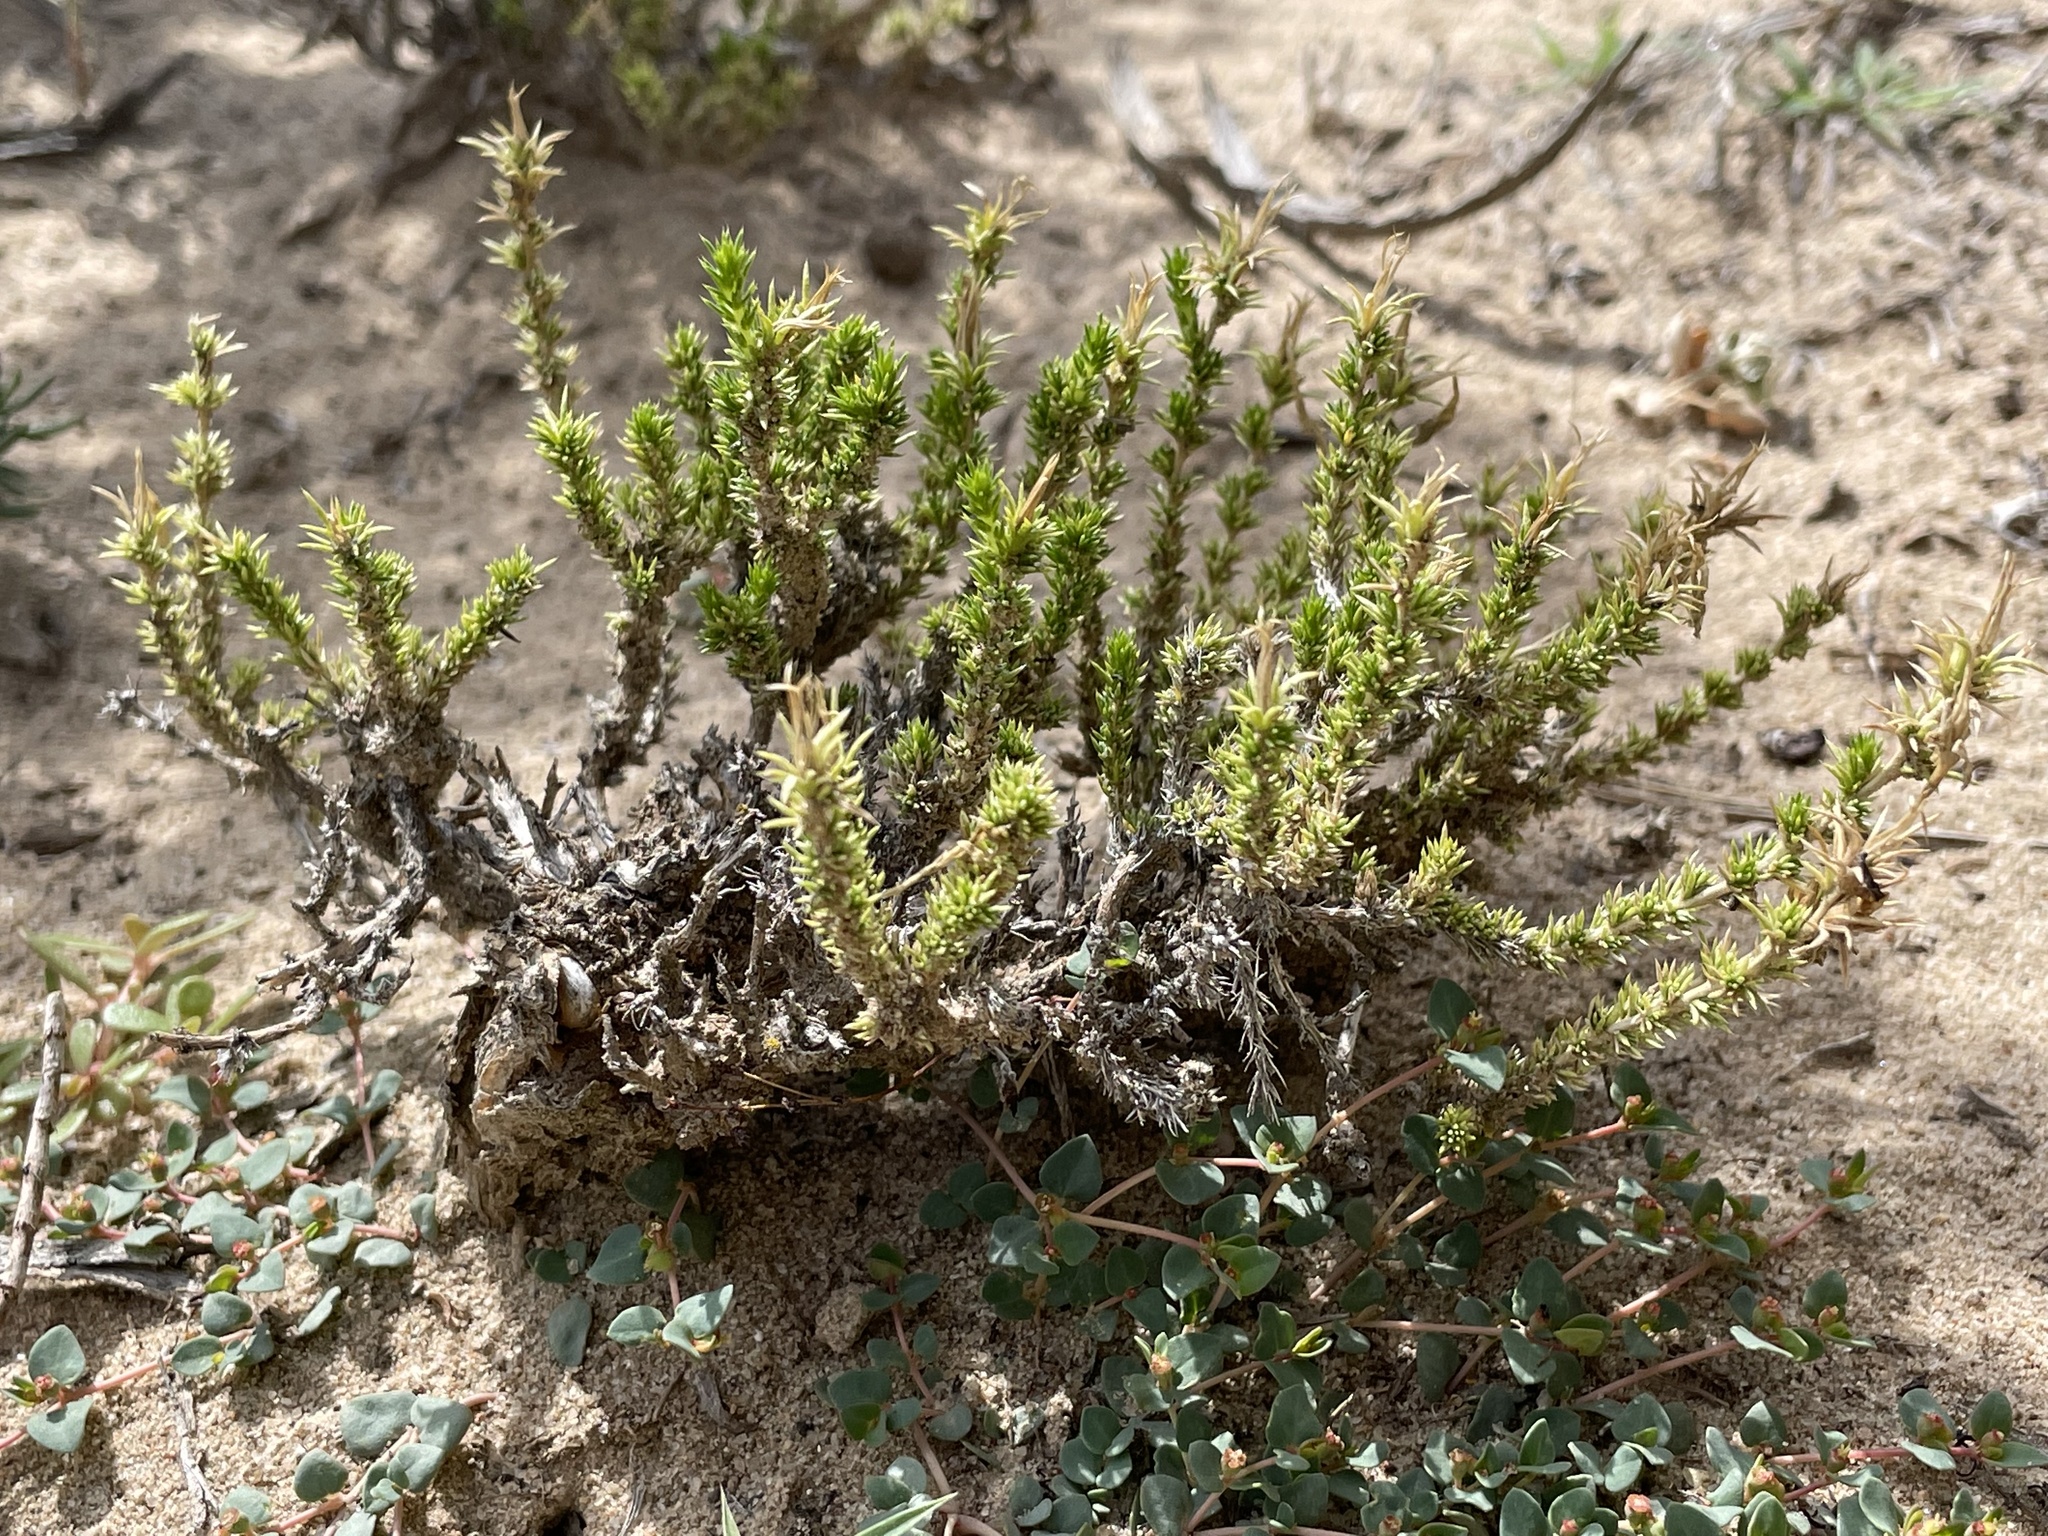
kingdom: Plantae
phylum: Tracheophyta
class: Magnoliopsida
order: Ericales
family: Polemoniaceae
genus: Linanthus
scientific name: Linanthus pungens
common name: Granite prickly phlox
